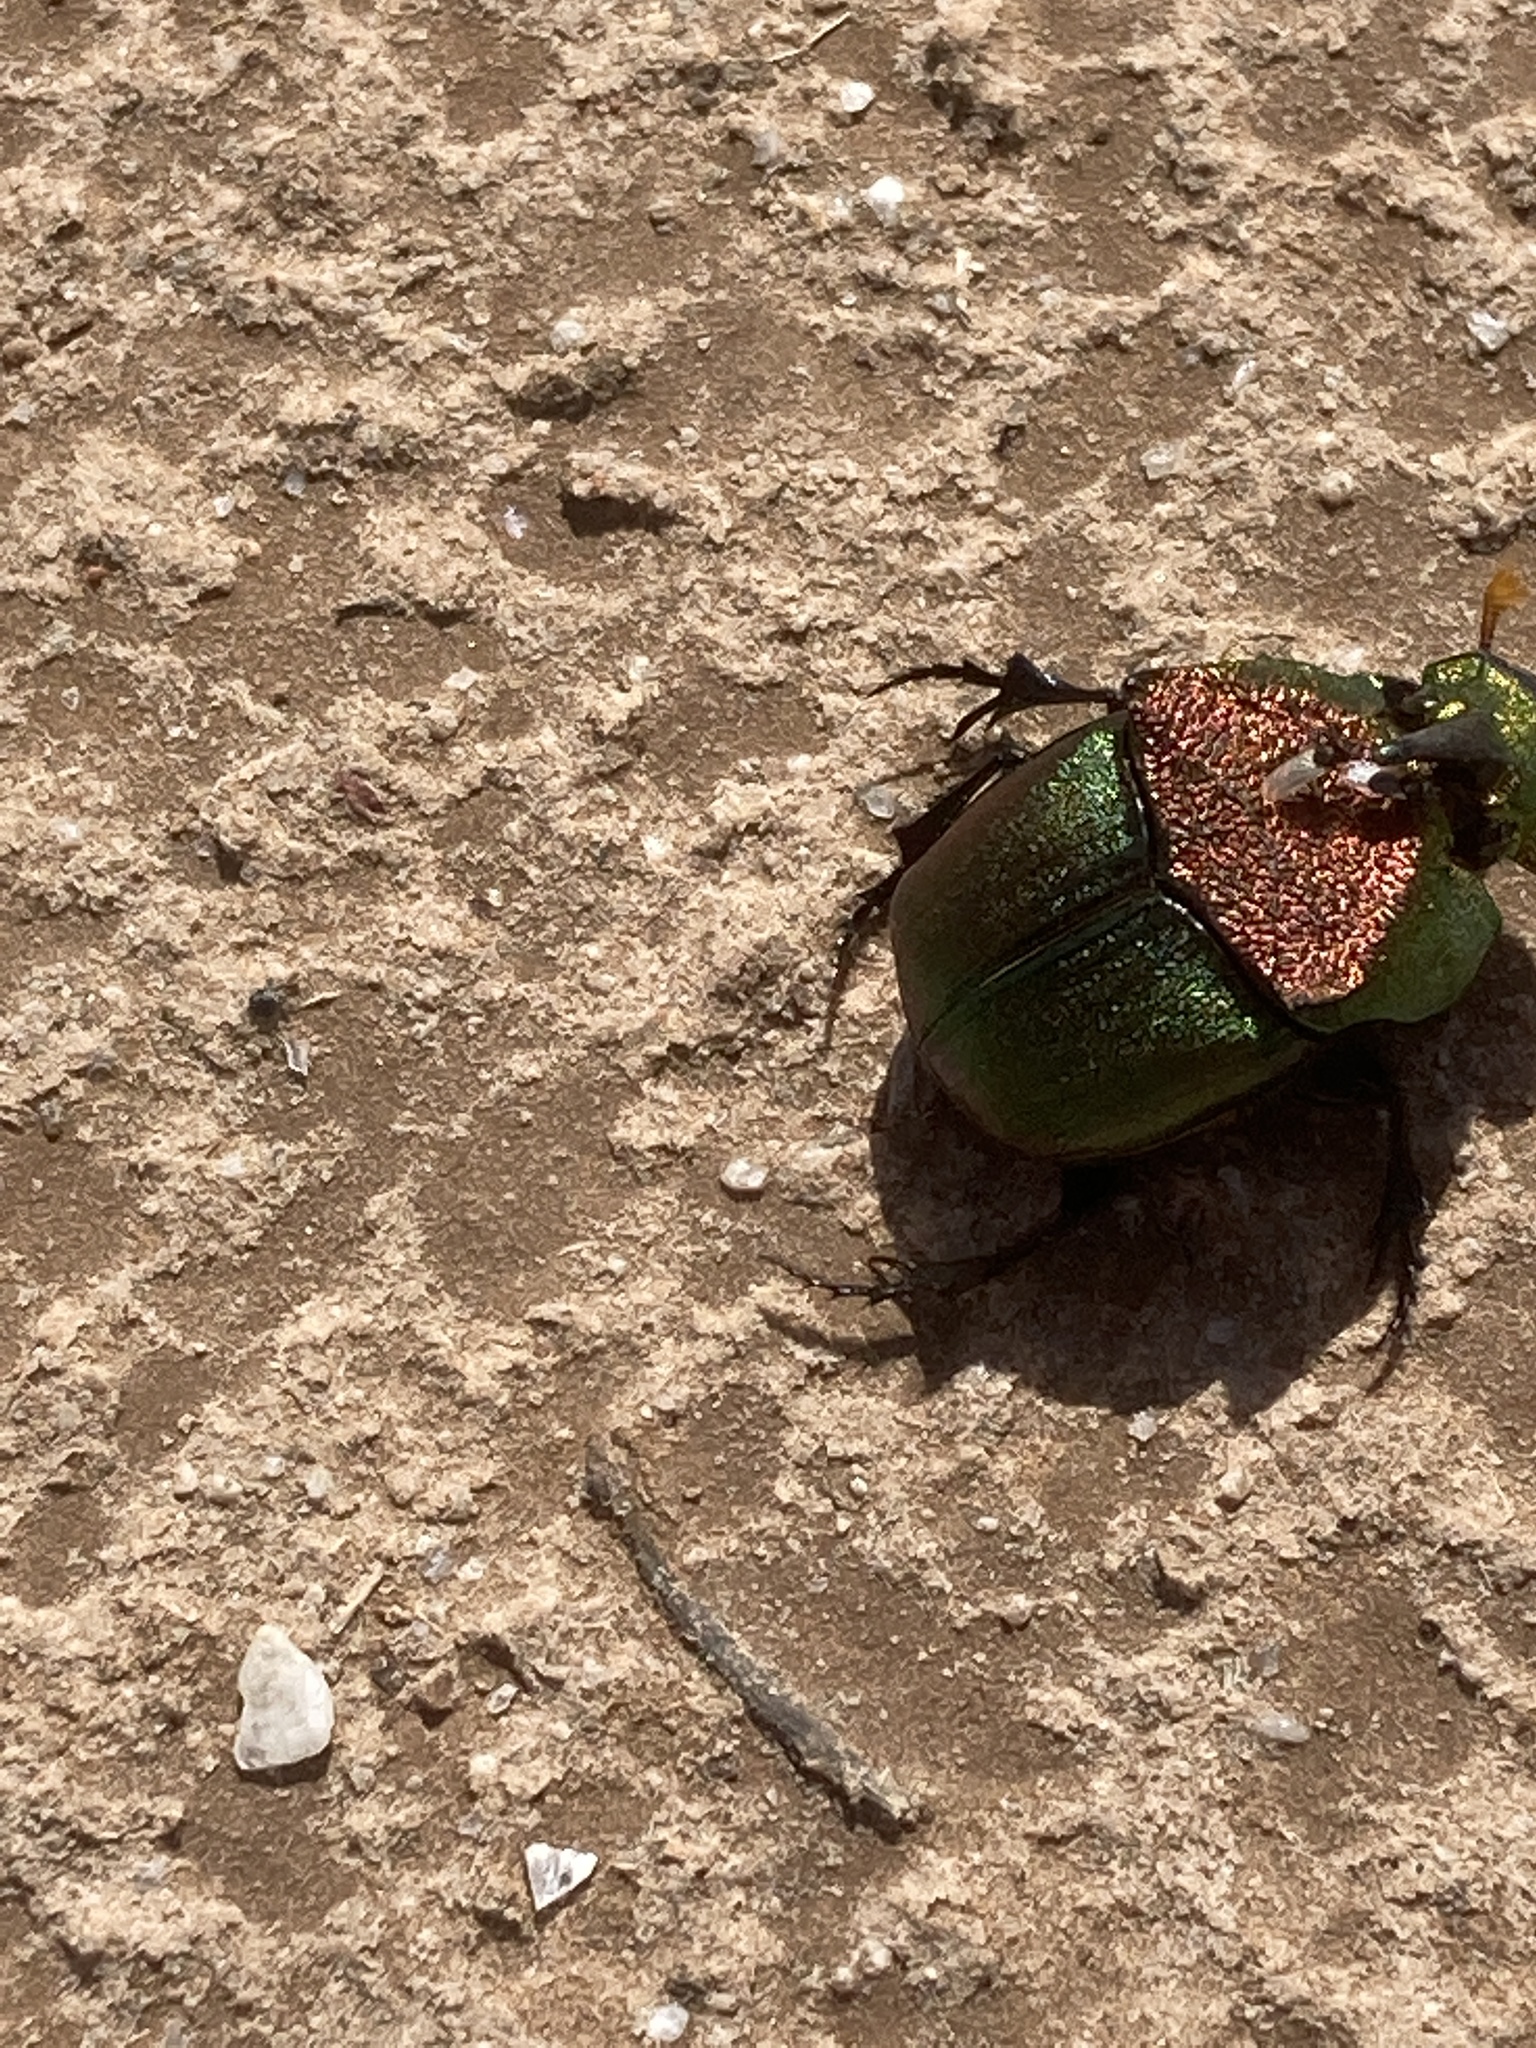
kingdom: Animalia
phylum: Arthropoda
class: Insecta
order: Coleoptera
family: Scarabaeidae
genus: Phanaeus
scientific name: Phanaeus vindex
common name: Rainbow scarab
